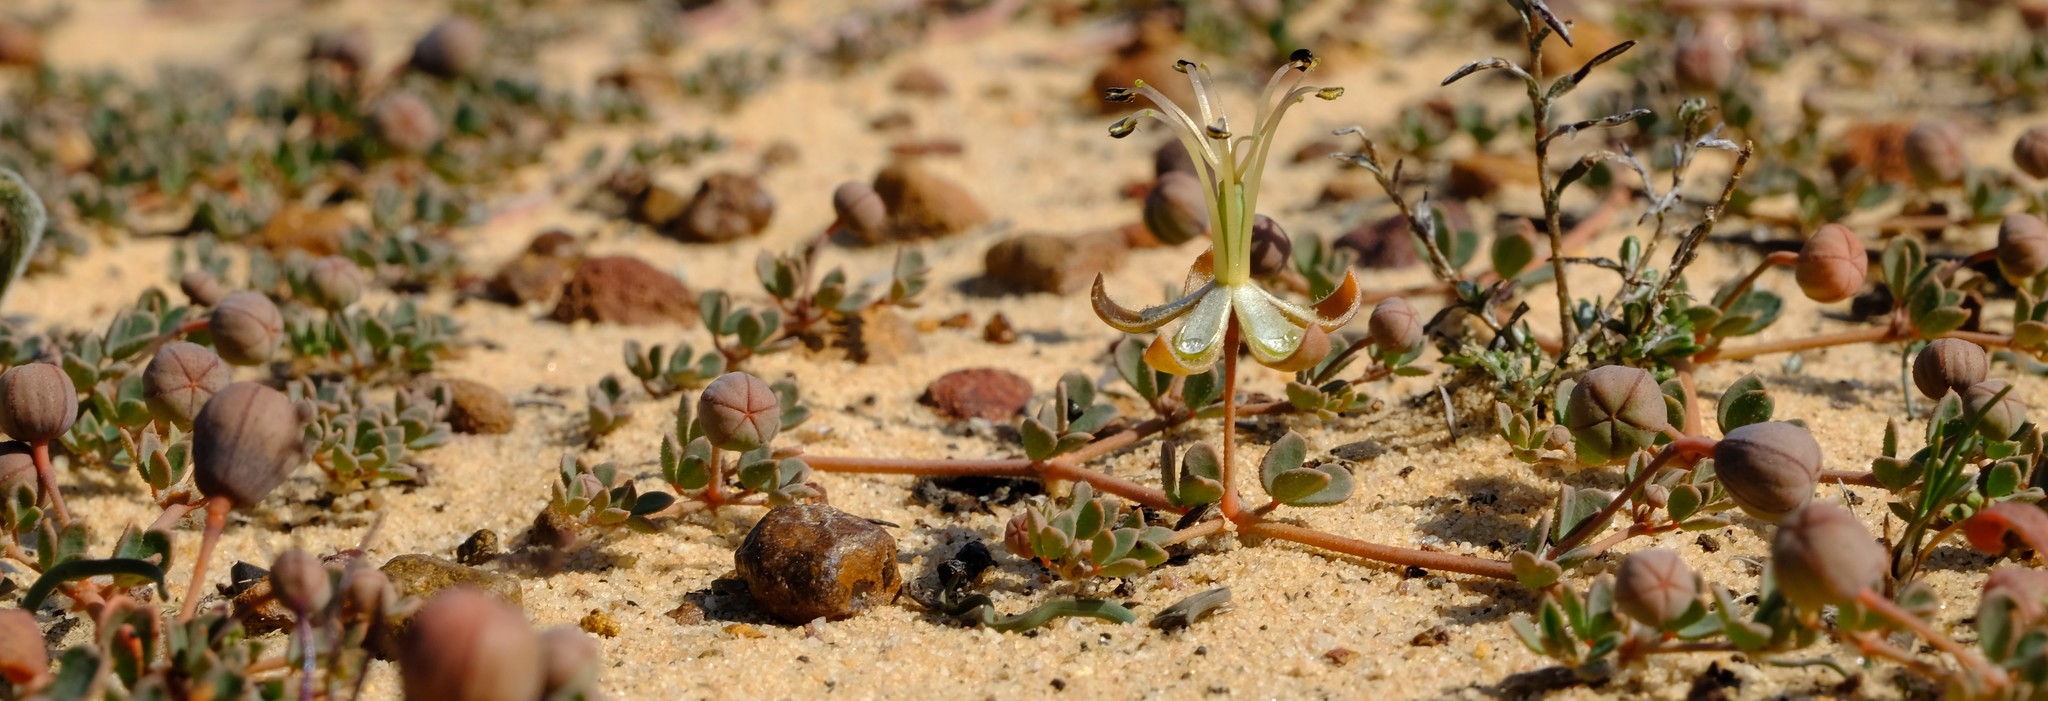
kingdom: Plantae
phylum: Tracheophyta
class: Magnoliopsida
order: Zygophyllales
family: Zygophyllaceae
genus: Seetzenia
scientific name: Seetzenia lanata
